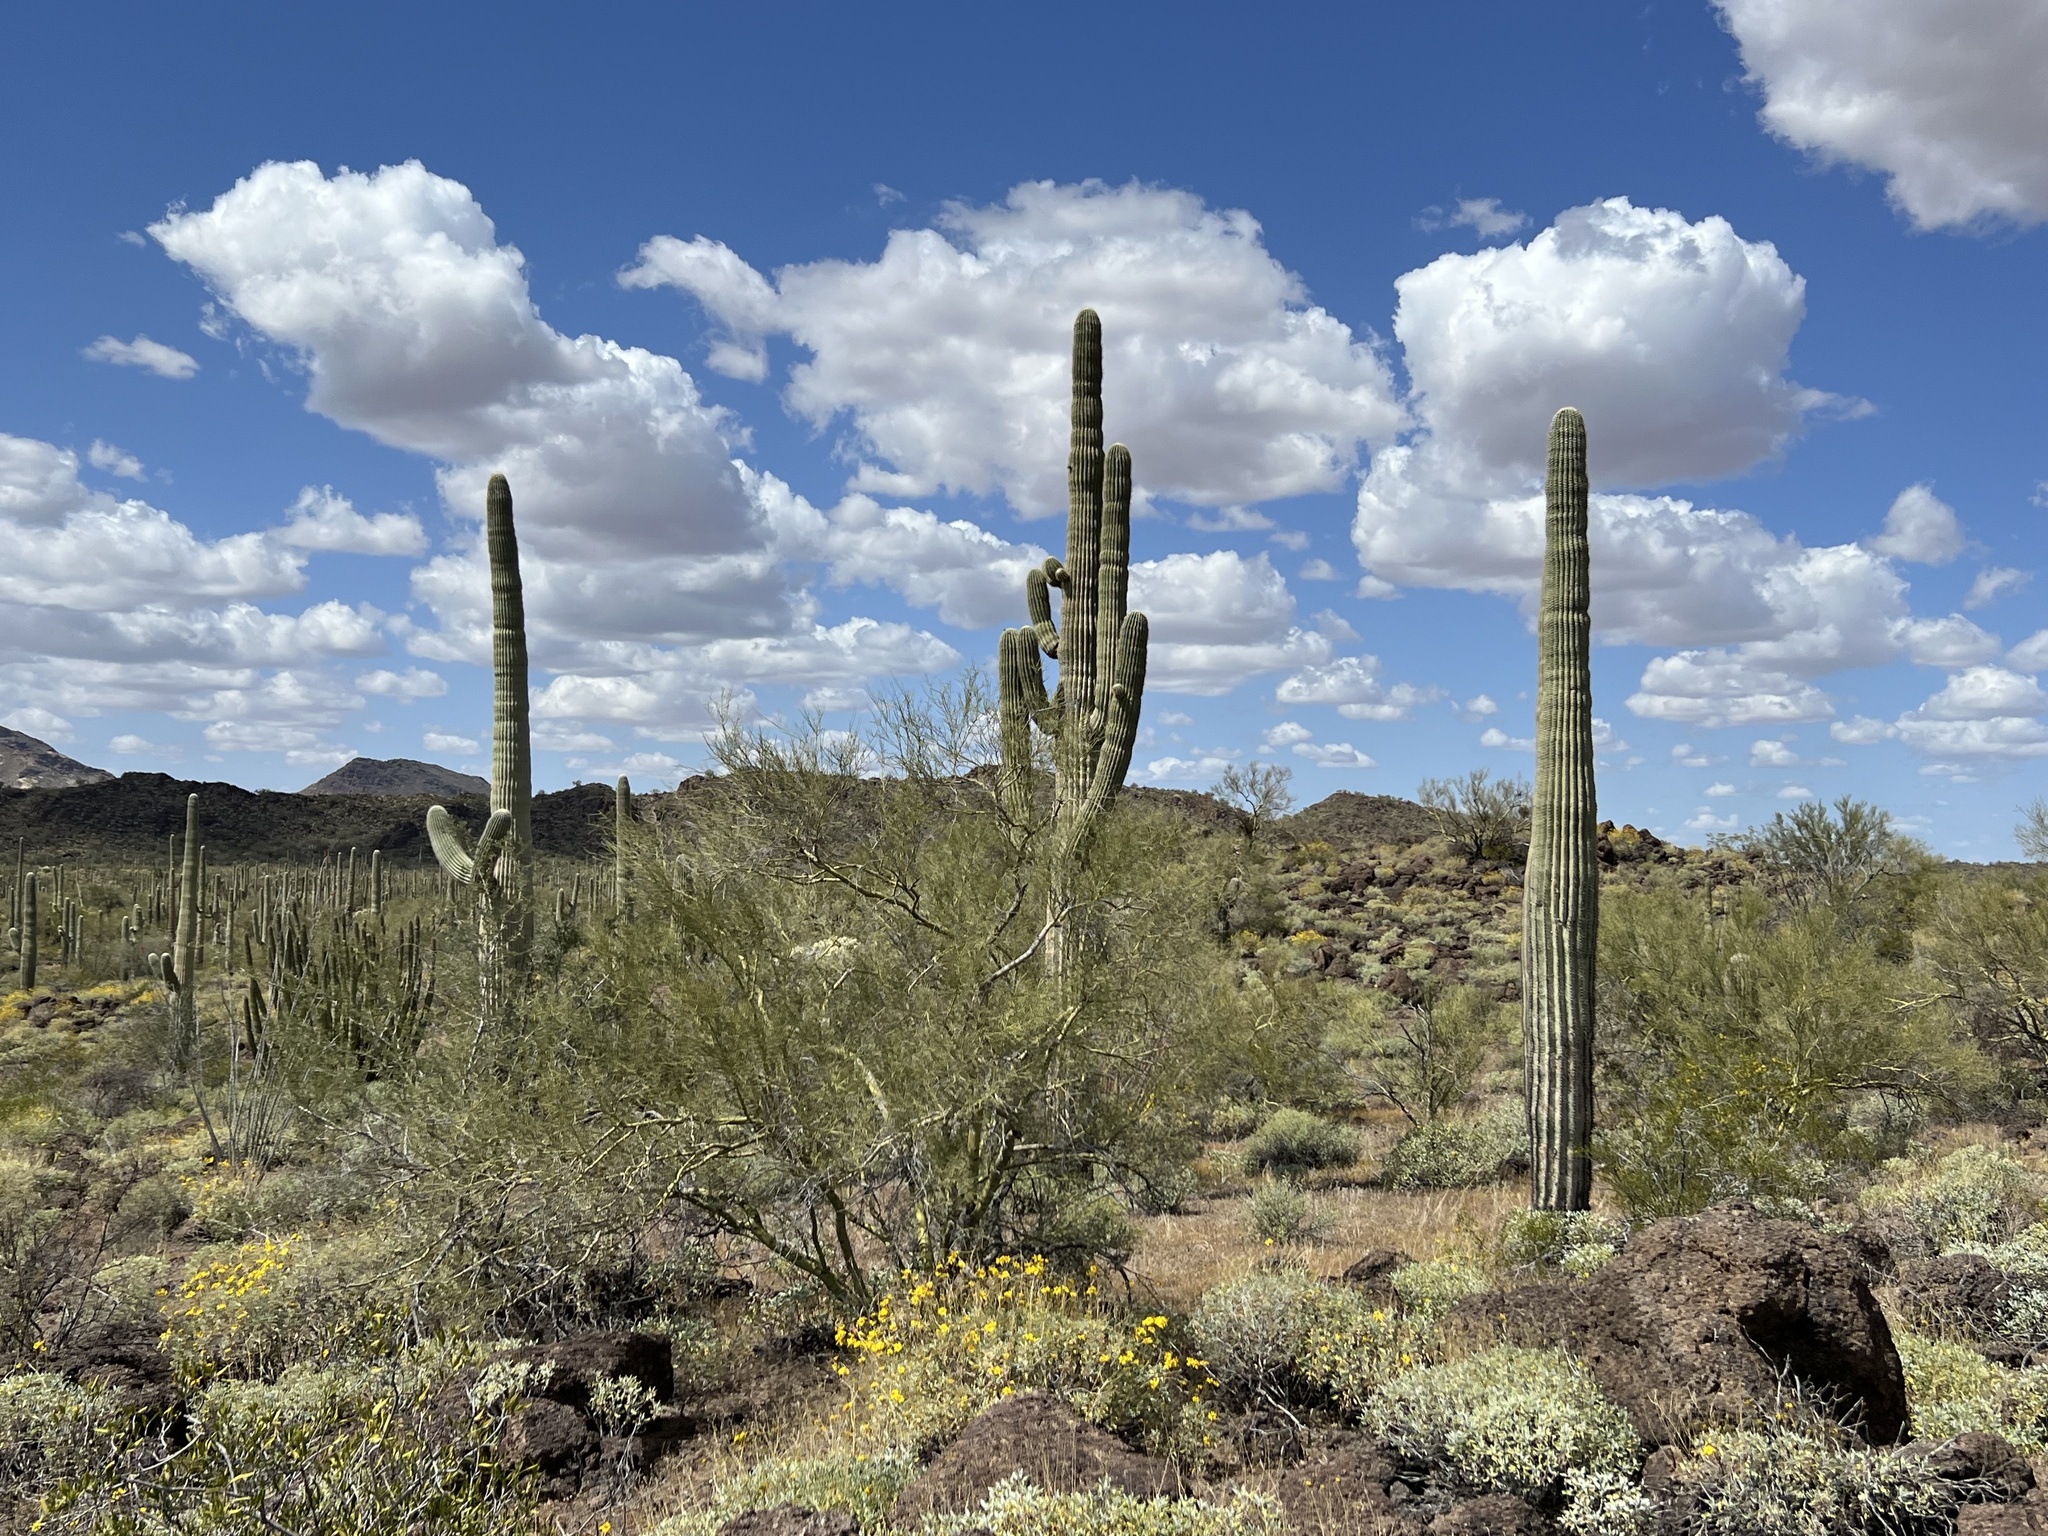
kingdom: Plantae
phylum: Tracheophyta
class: Magnoliopsida
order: Caryophyllales
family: Cactaceae
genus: Carnegiea
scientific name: Carnegiea gigantea
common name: Saguaro
